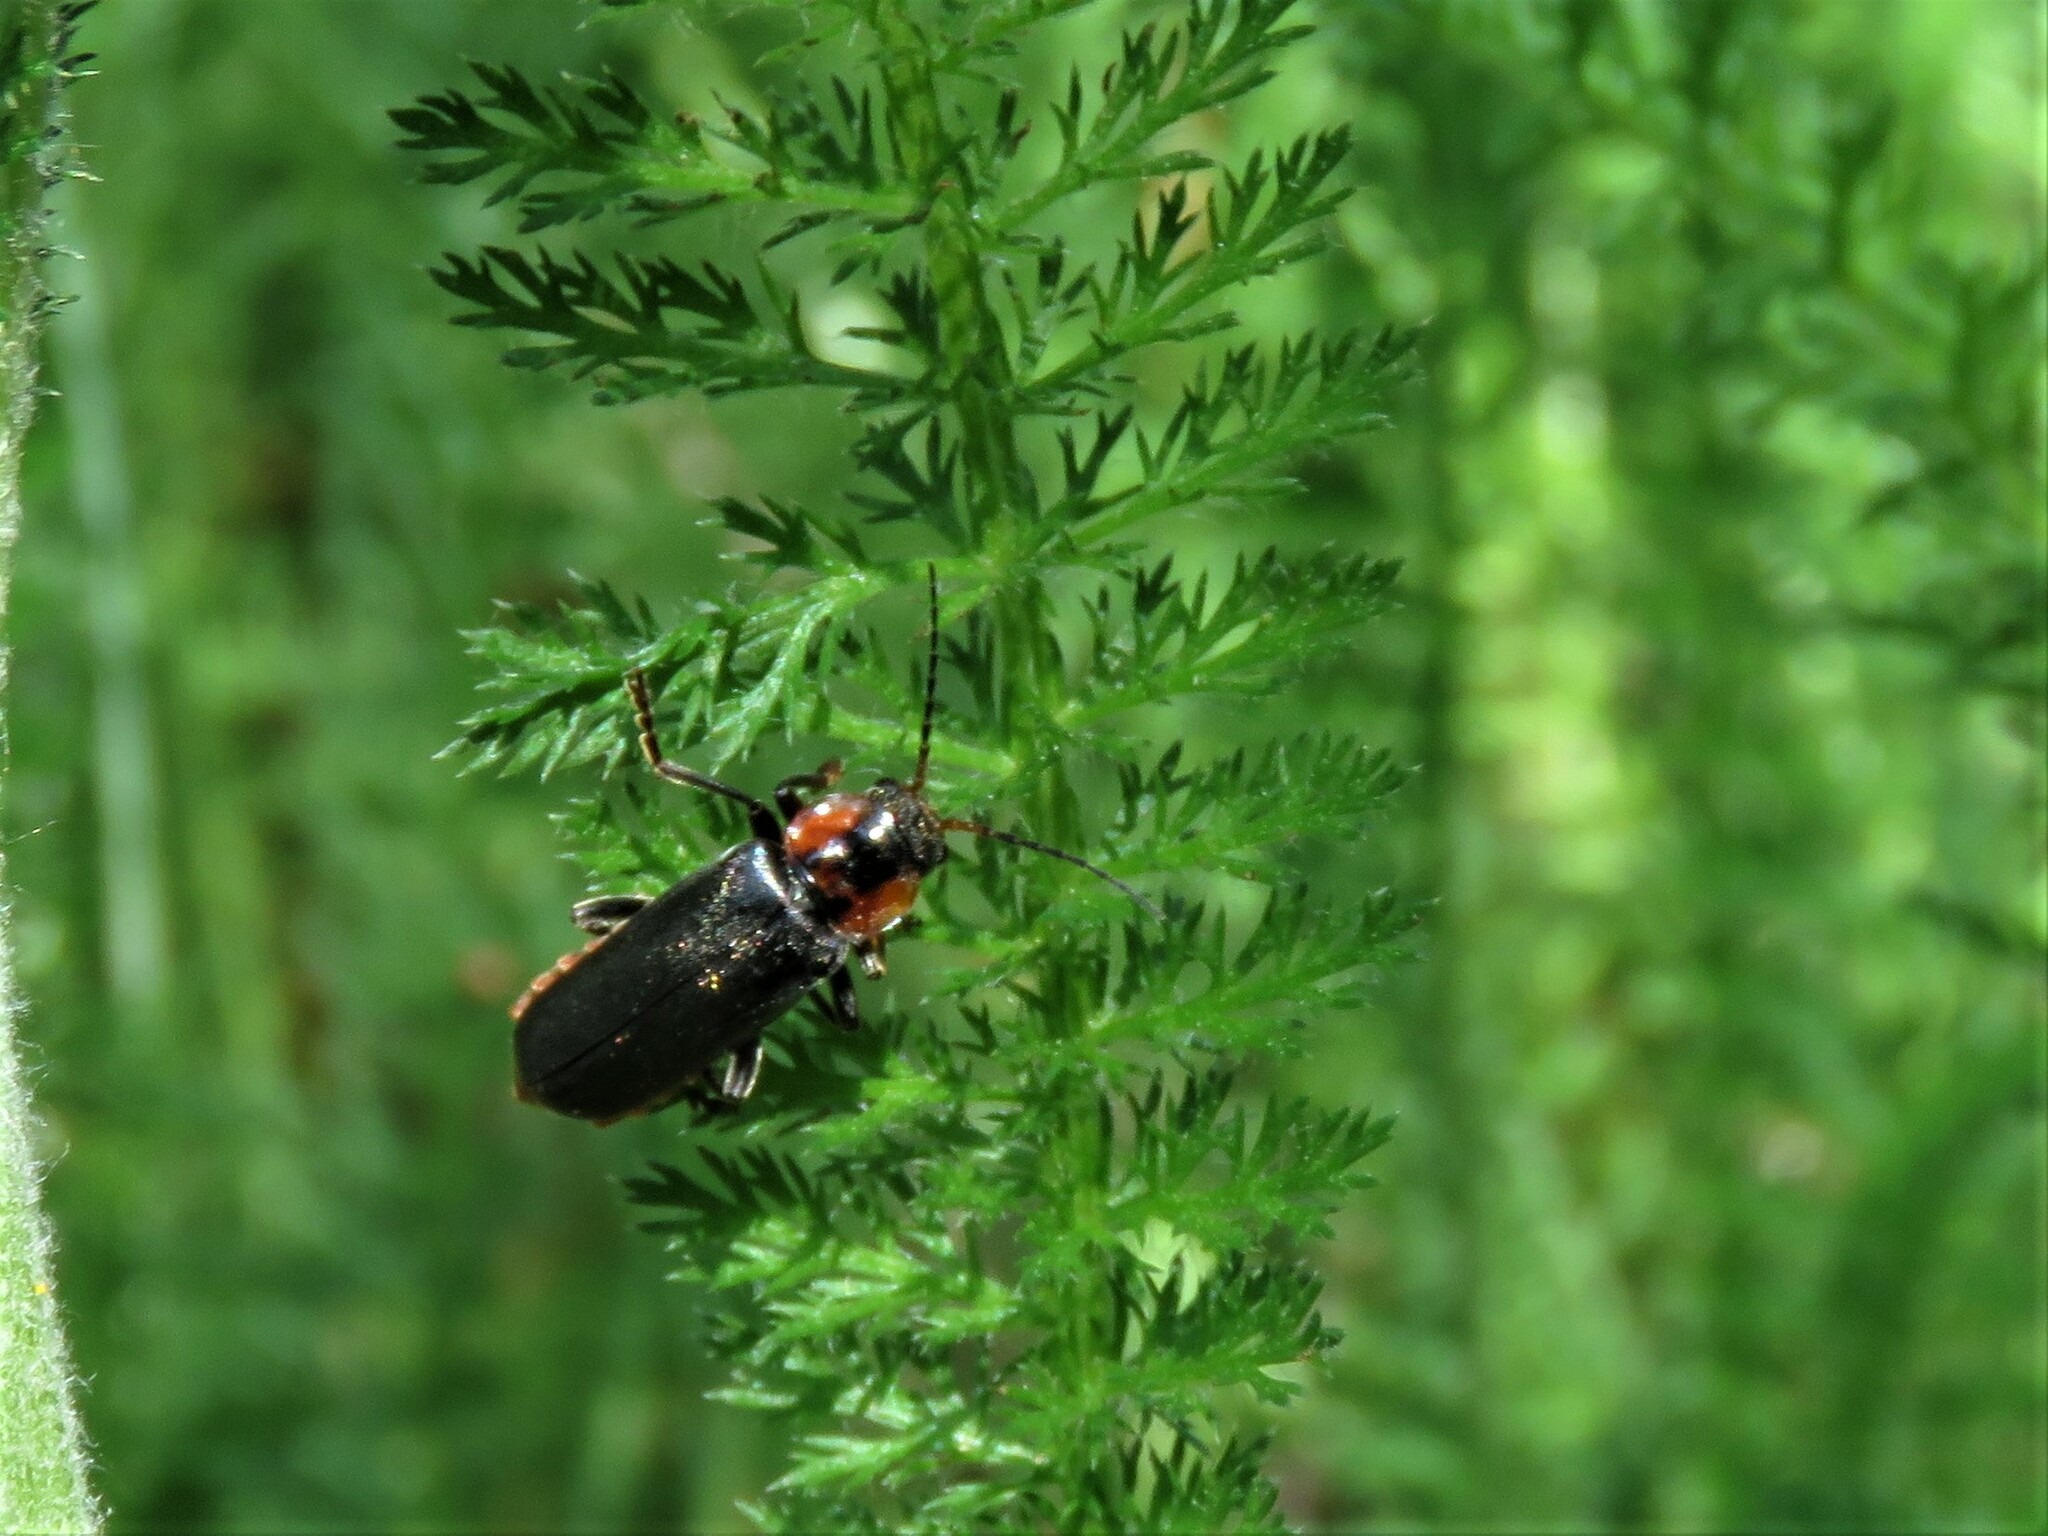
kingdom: Animalia
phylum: Arthropoda
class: Insecta
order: Coleoptera
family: Cantharidae
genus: Cantharis
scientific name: Cantharis fusca
